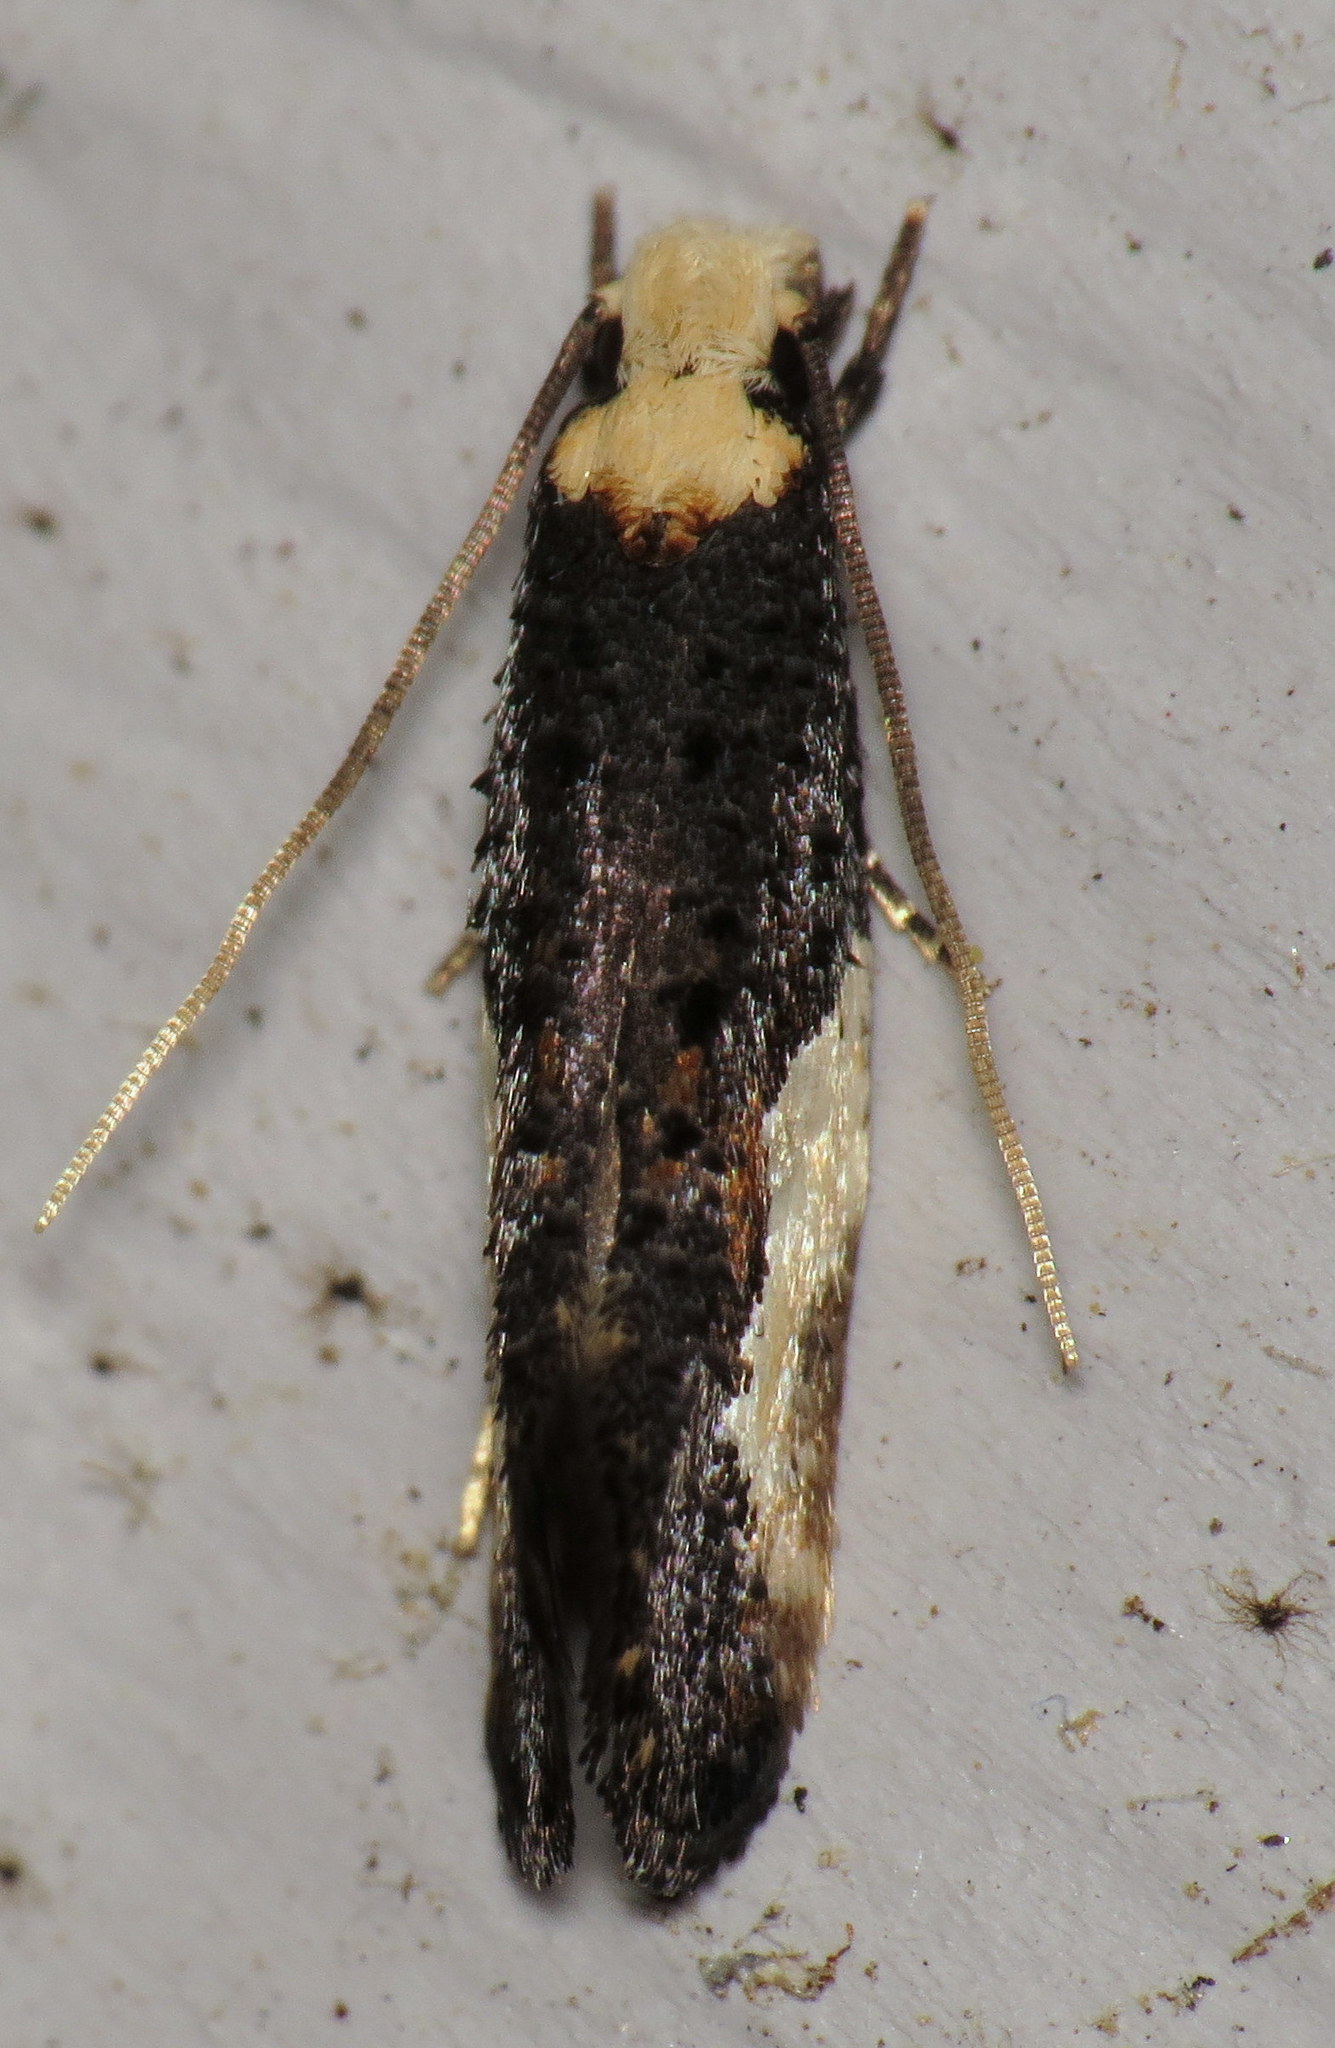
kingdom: Animalia
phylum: Arthropoda
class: Insecta
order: Lepidoptera
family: Tineidae
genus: Monopis
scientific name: Monopis longella
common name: Pavlovski's monopis moth
